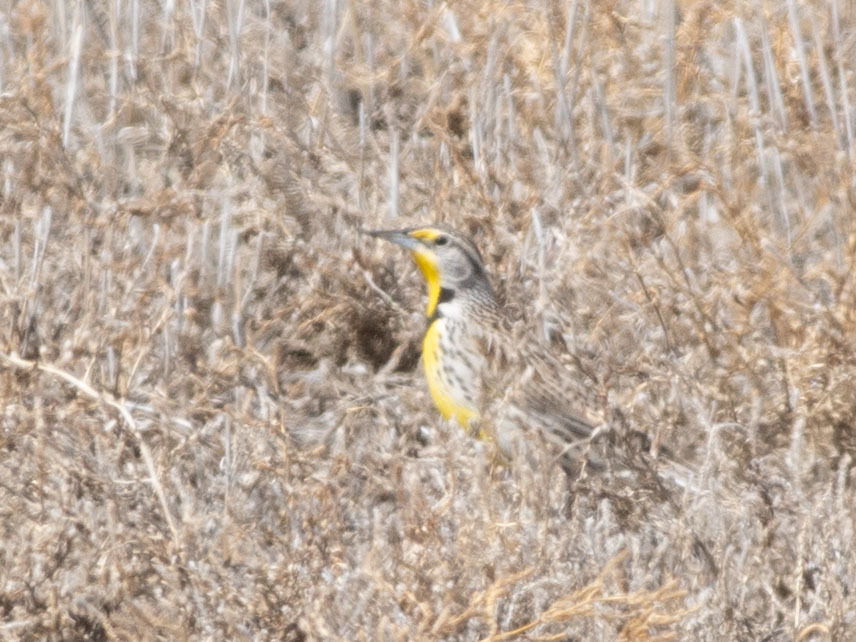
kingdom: Animalia
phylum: Chordata
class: Aves
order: Passeriformes
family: Icteridae
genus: Sturnella
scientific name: Sturnella neglecta
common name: Western meadowlark
